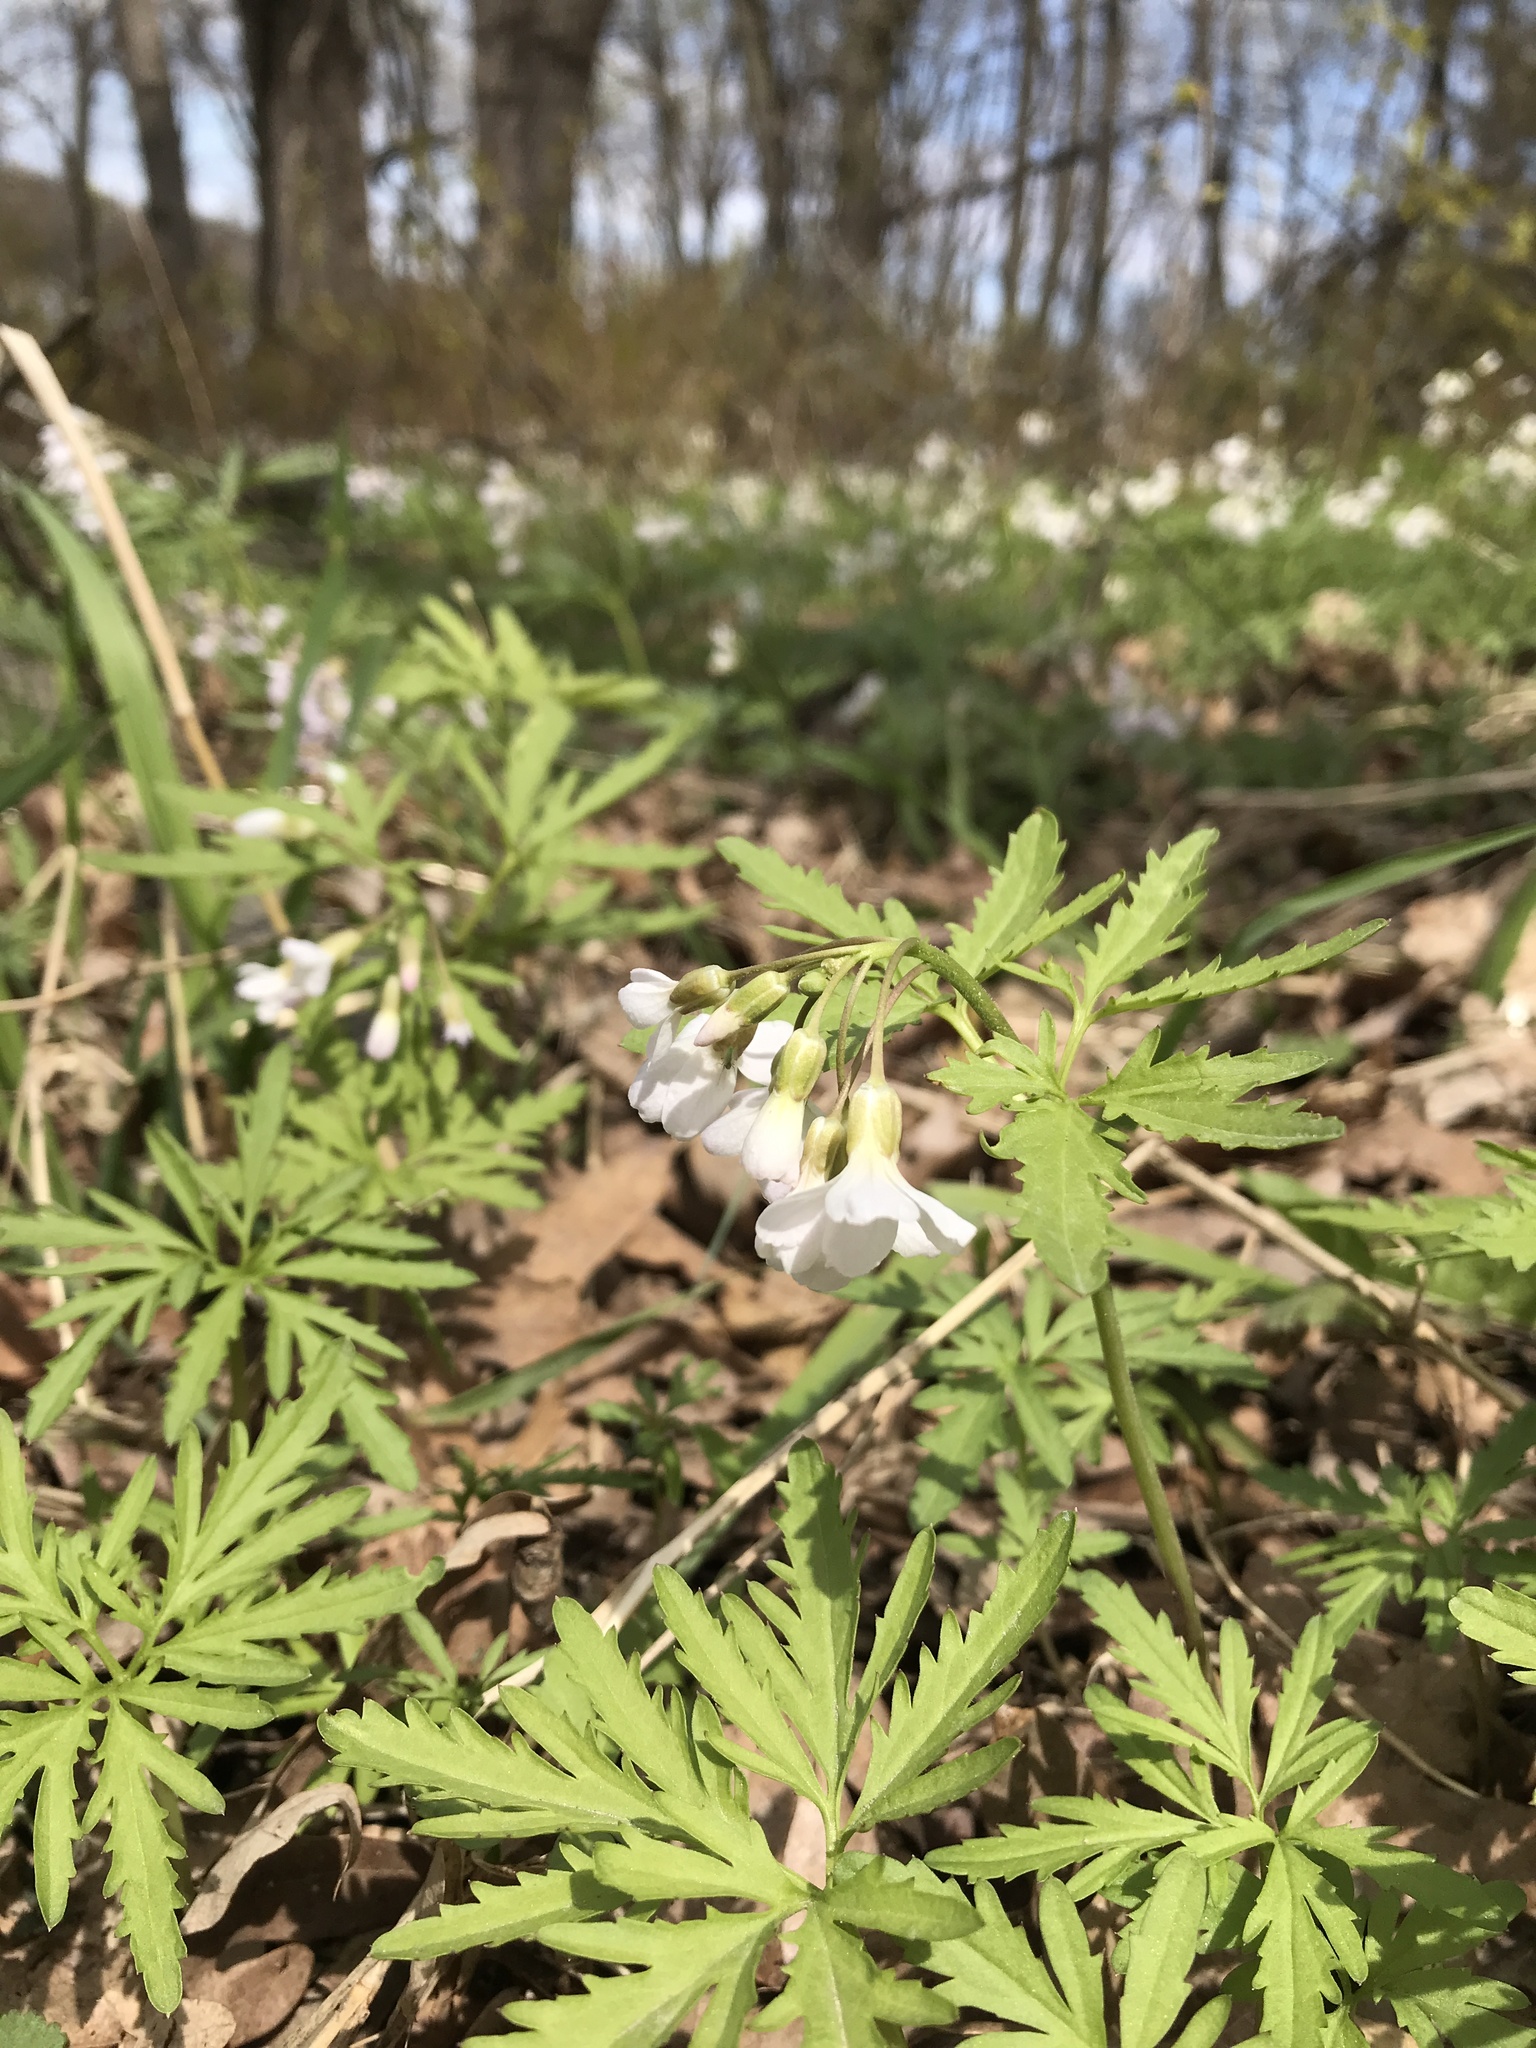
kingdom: Plantae
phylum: Tracheophyta
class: Magnoliopsida
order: Brassicales
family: Brassicaceae
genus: Cardamine
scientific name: Cardamine concatenata
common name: Cut-leaf toothcup
